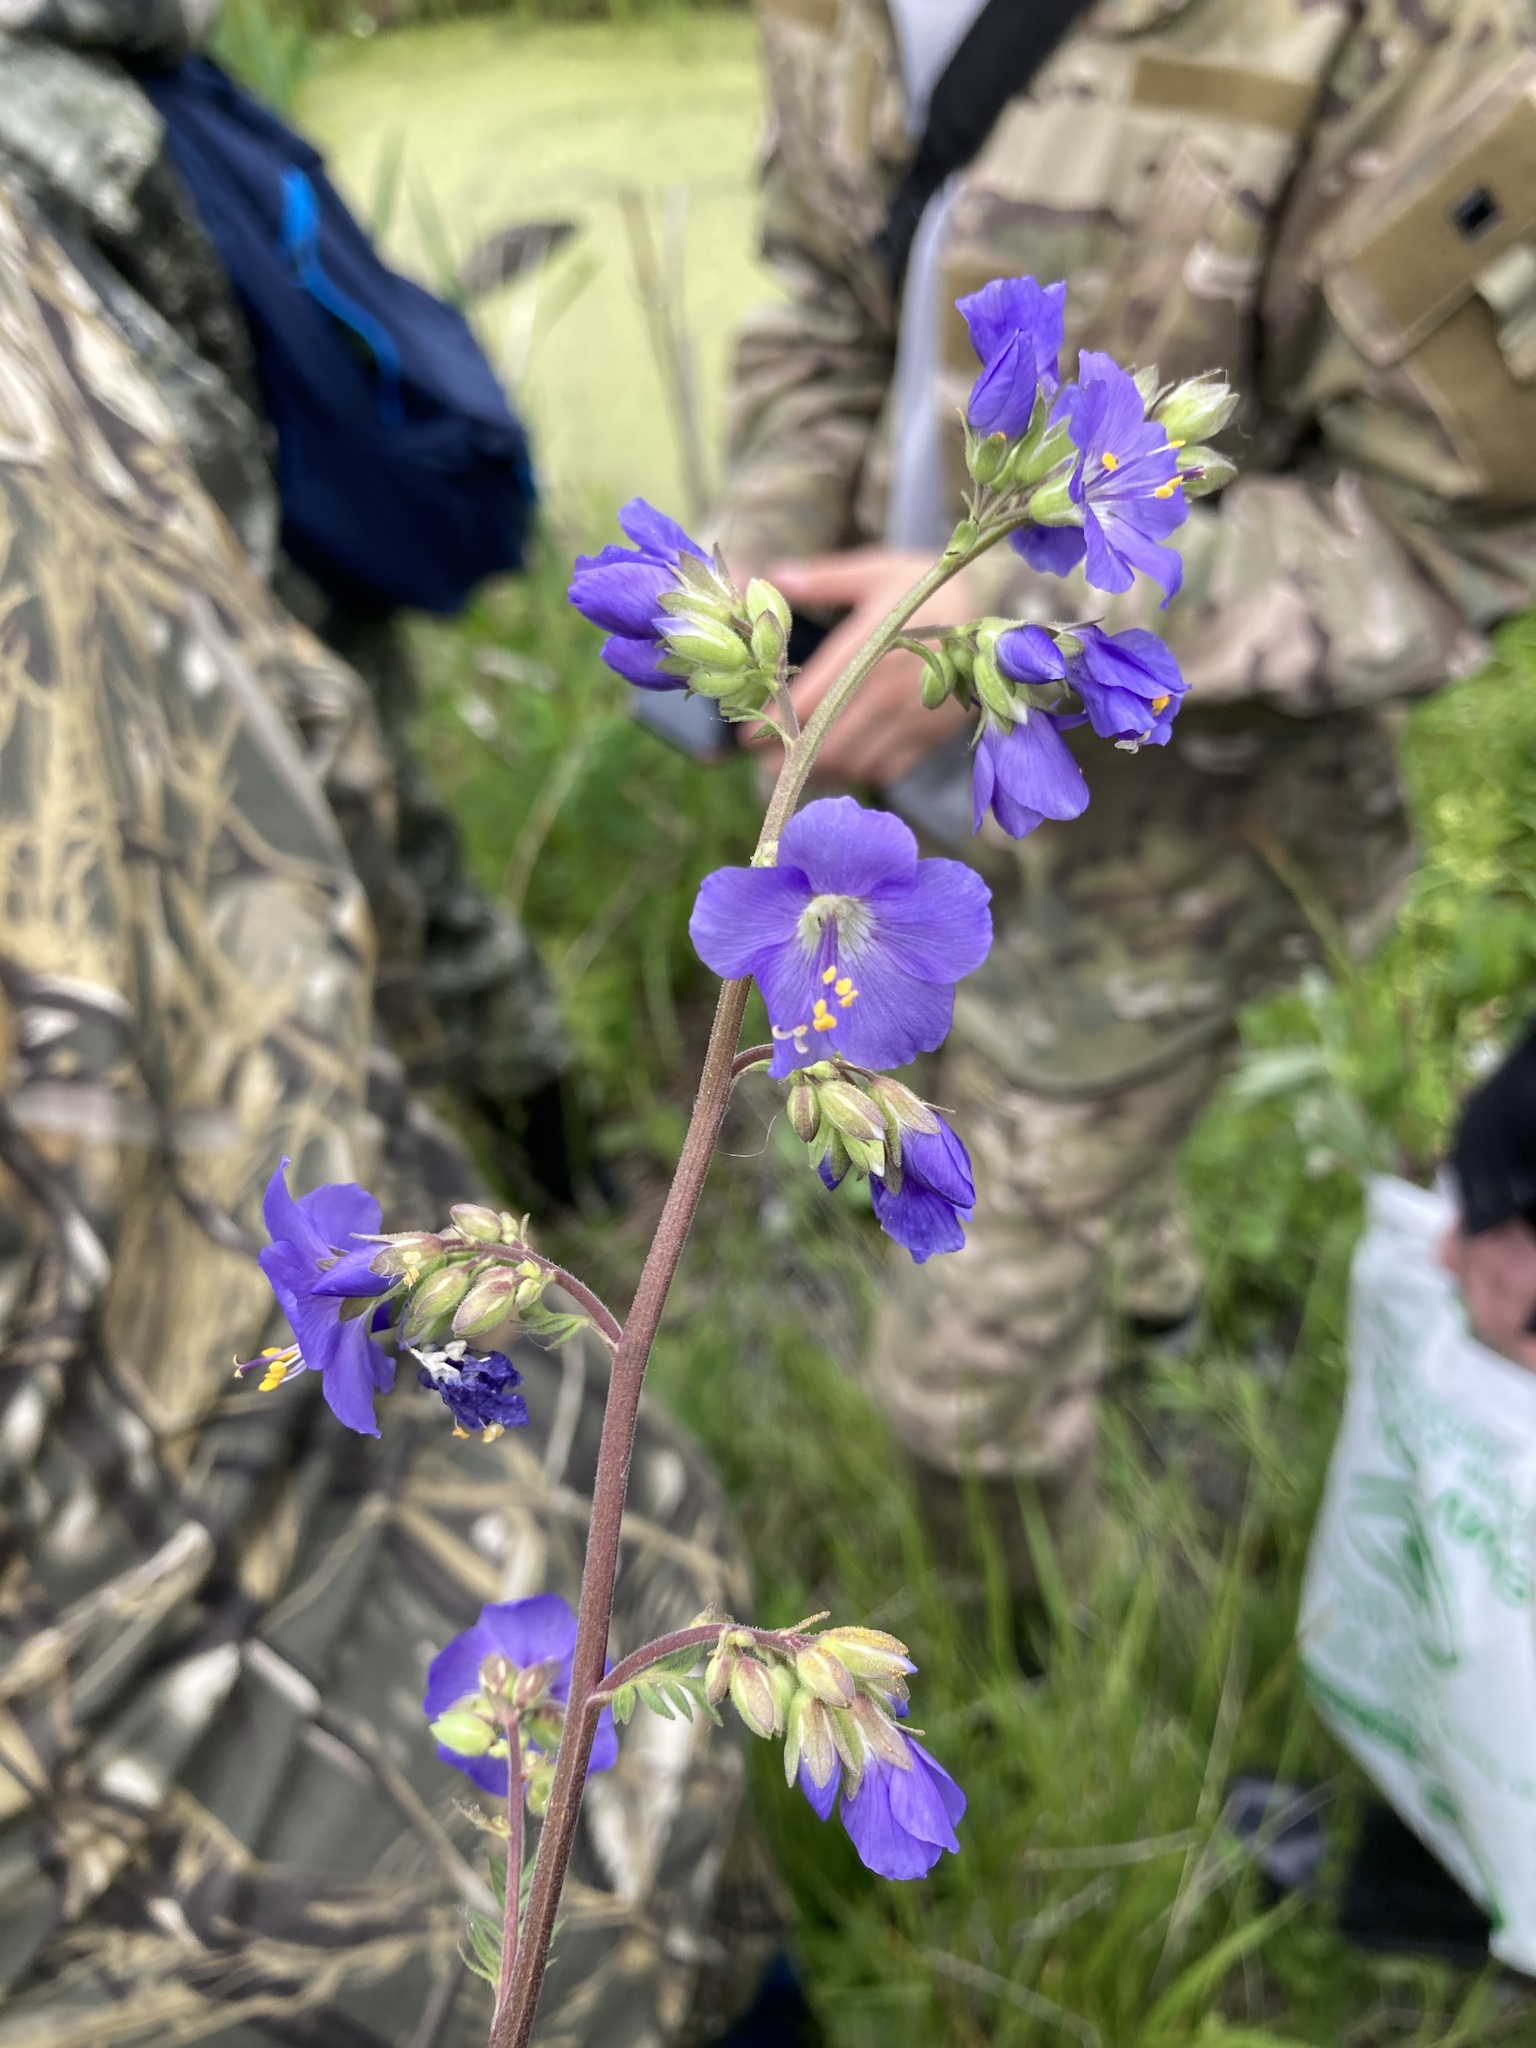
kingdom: Plantae
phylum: Tracheophyta
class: Magnoliopsida
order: Ericales
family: Polemoniaceae
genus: Polemonium
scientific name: Polemonium caeruleum
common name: Jacob's-ladder
